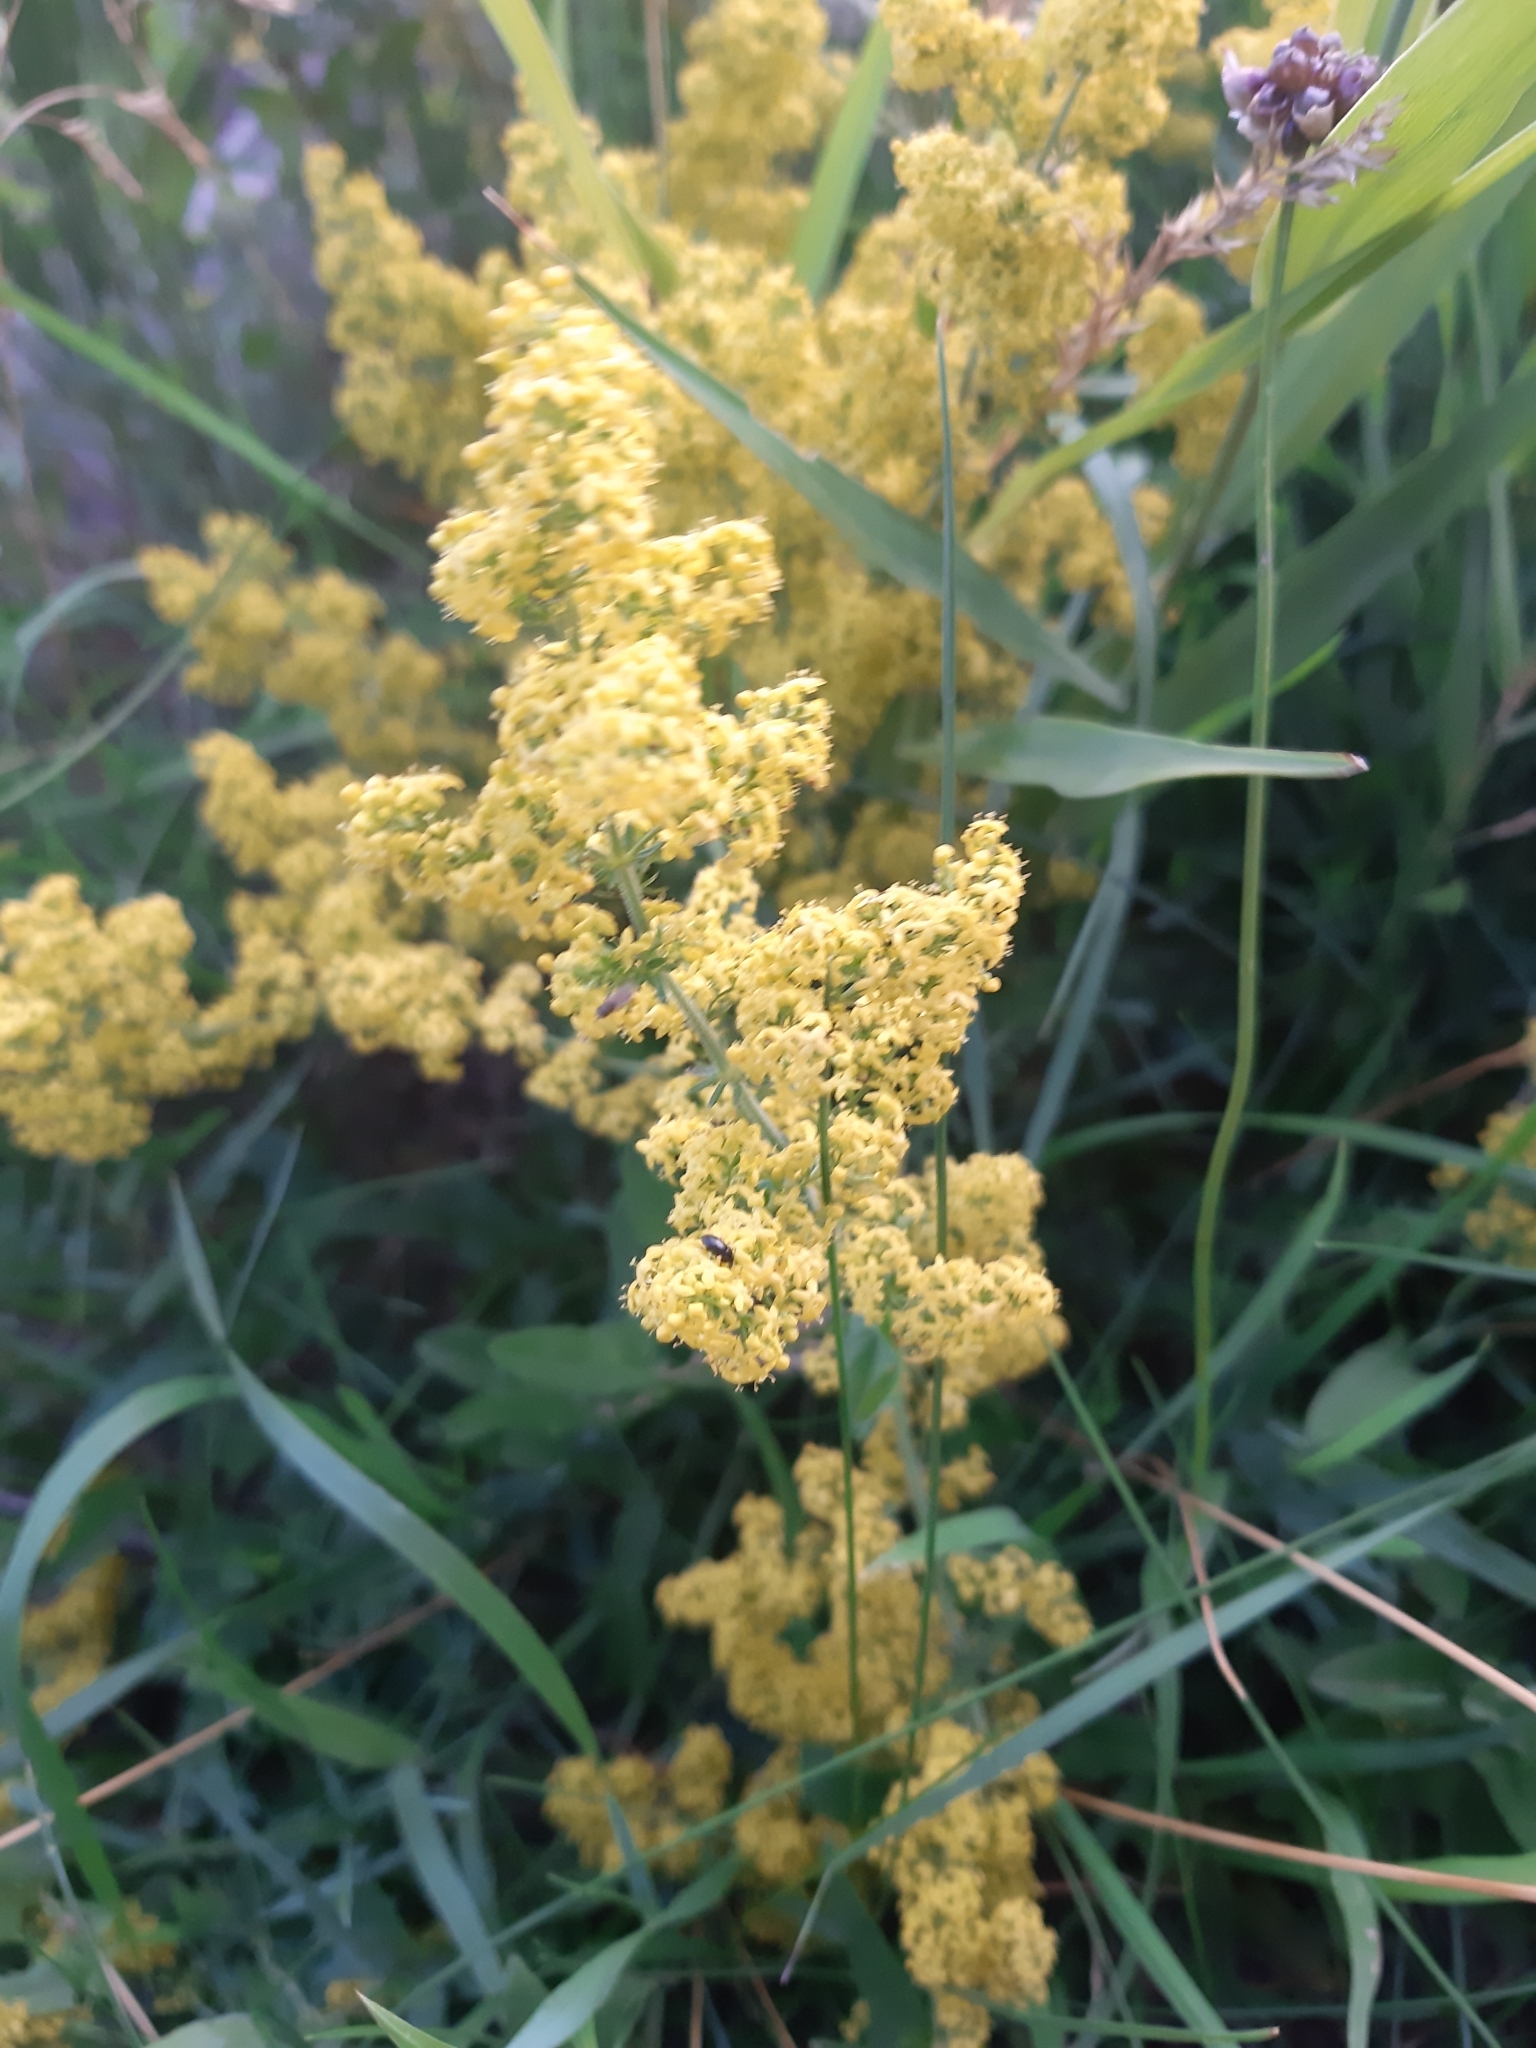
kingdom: Plantae
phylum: Tracheophyta
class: Magnoliopsida
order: Gentianales
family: Rubiaceae
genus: Galium
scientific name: Galium verum
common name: Lady's bedstraw
